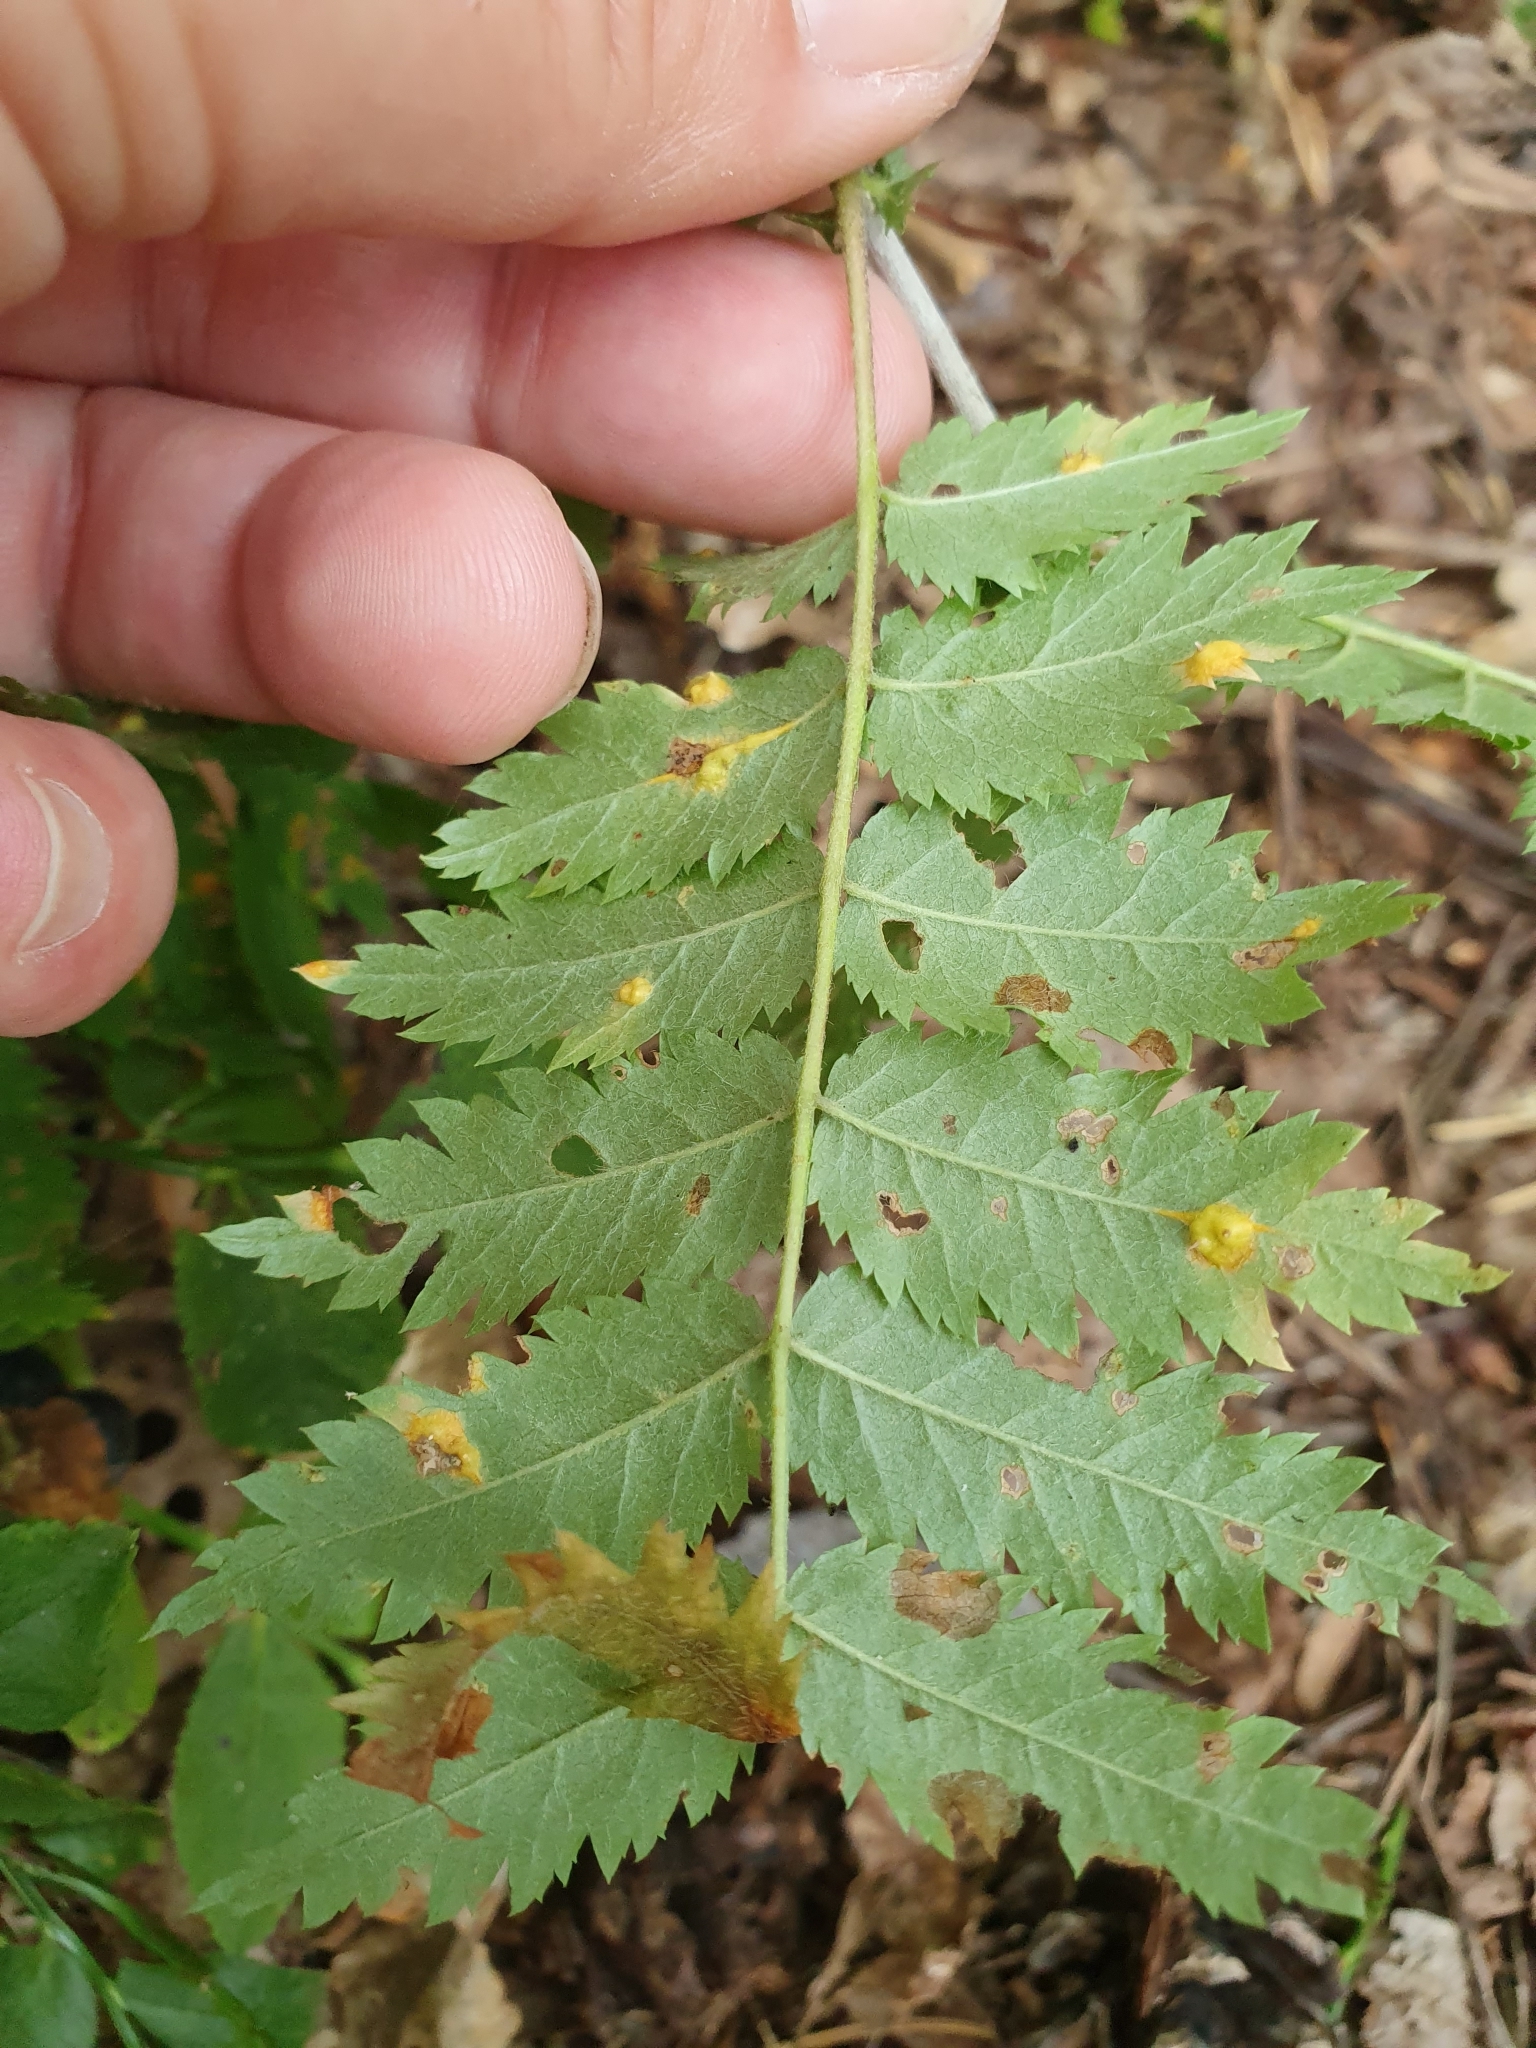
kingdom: Fungi
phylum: Basidiomycota
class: Pucciniomycetes
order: Pucciniales
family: Gymnosporangiaceae
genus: Gymnosporangium
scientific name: Gymnosporangium cornutum
